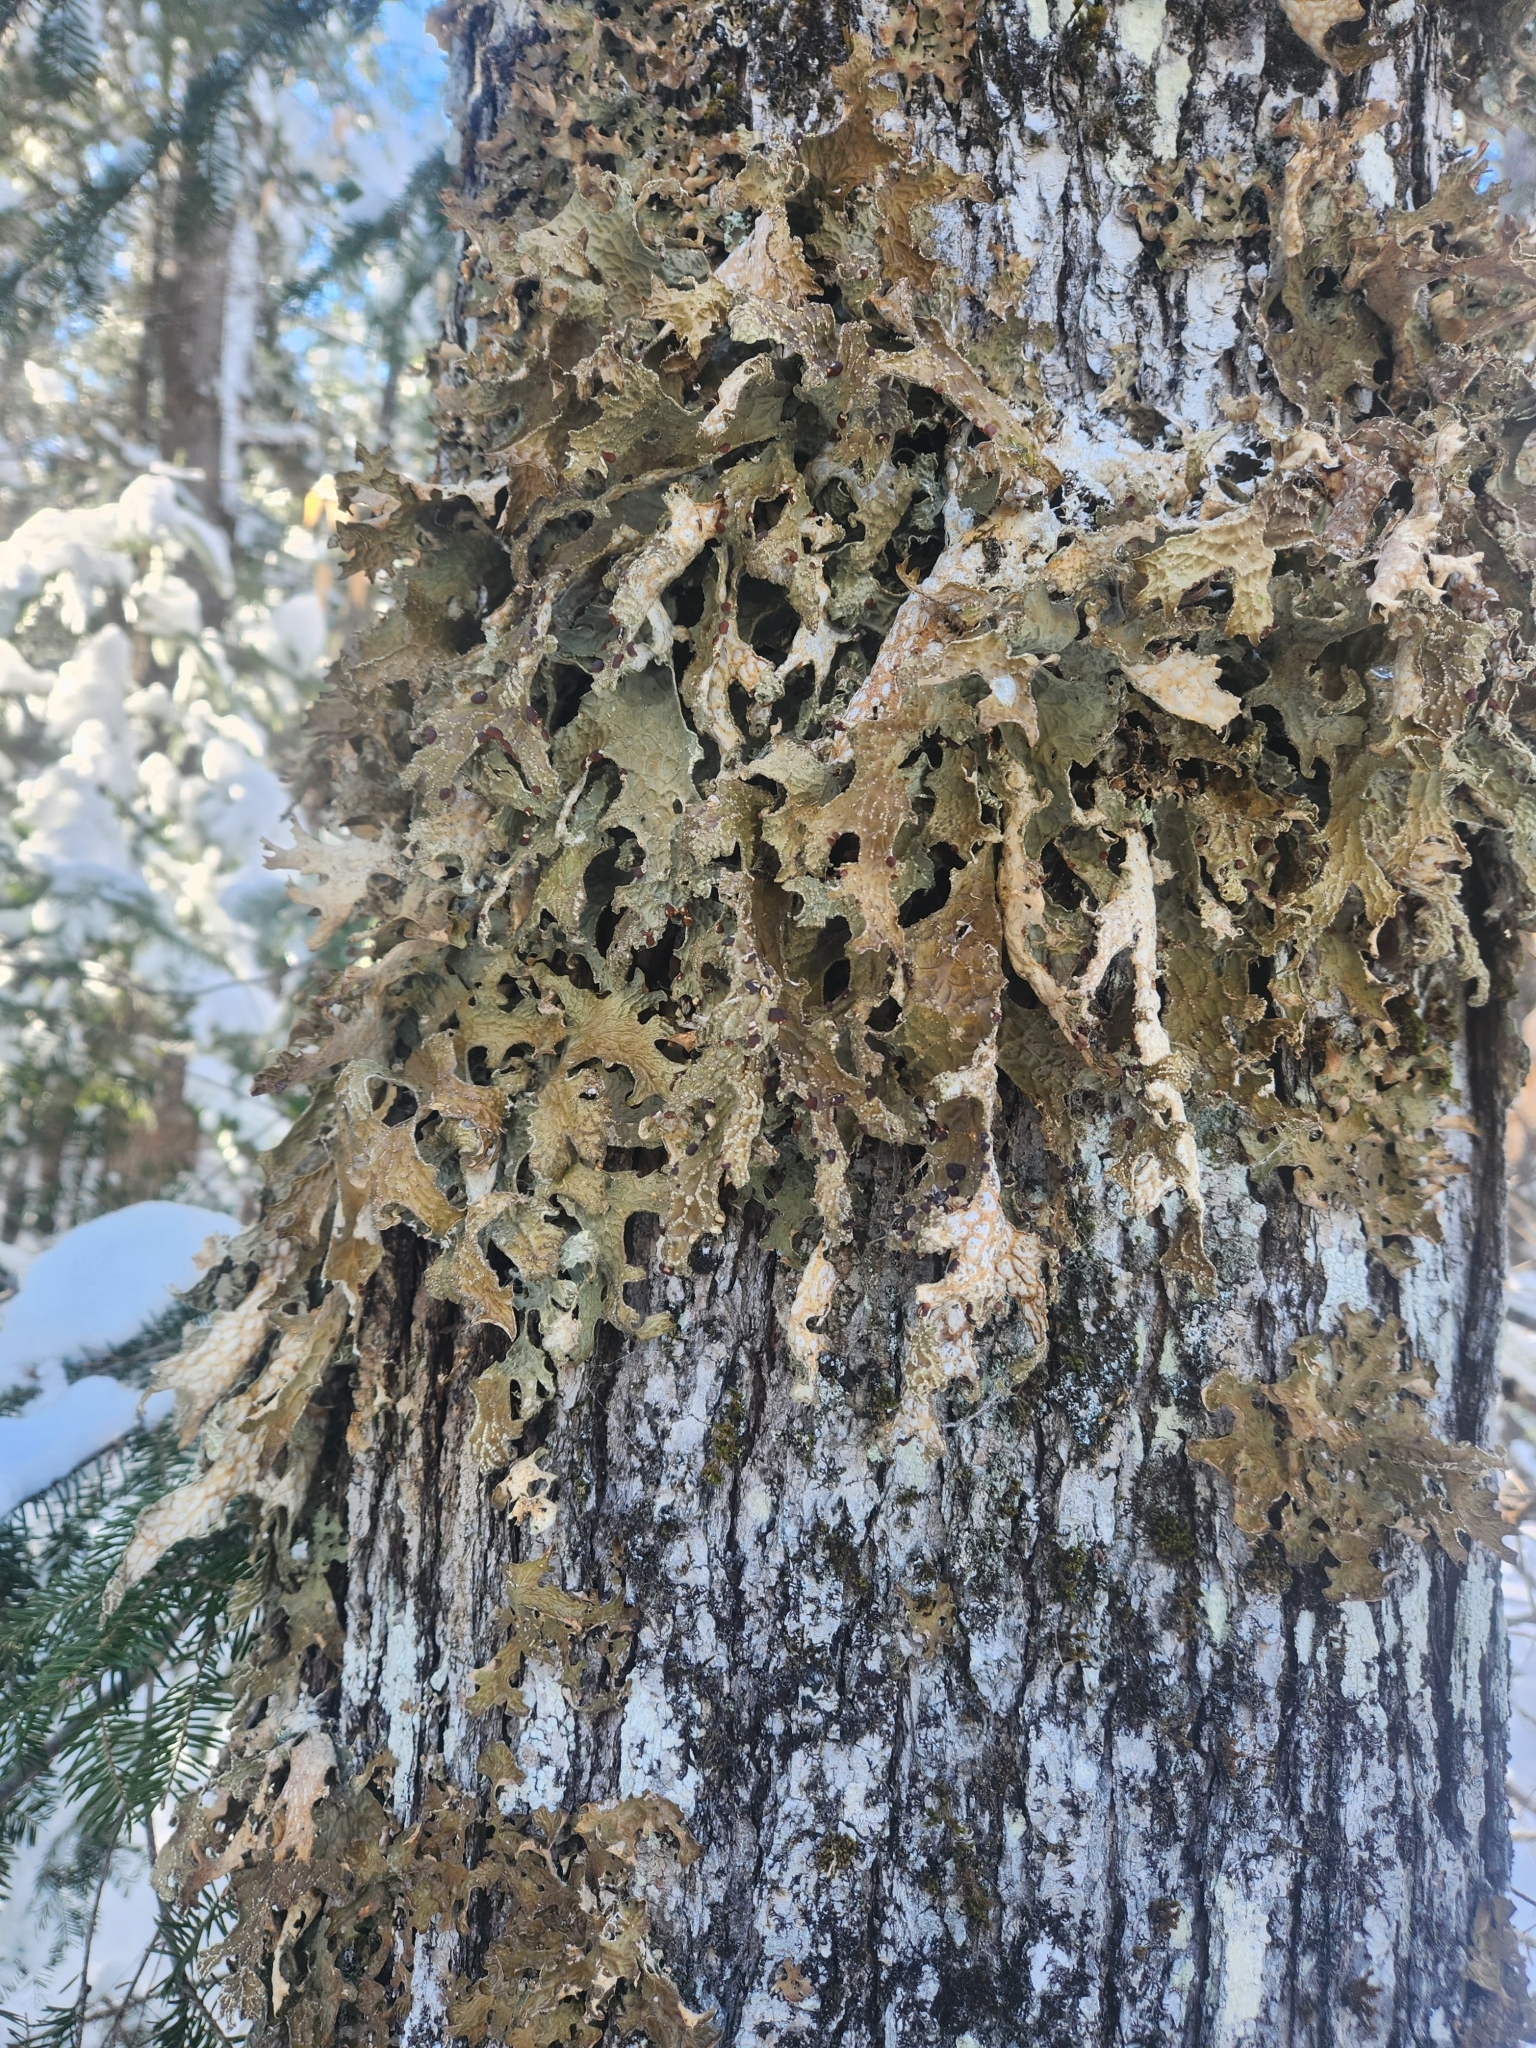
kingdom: Fungi
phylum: Ascomycota
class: Lecanoromycetes
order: Peltigerales
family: Lobariaceae
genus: Lobaria
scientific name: Lobaria pulmonaria
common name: Lungwort
